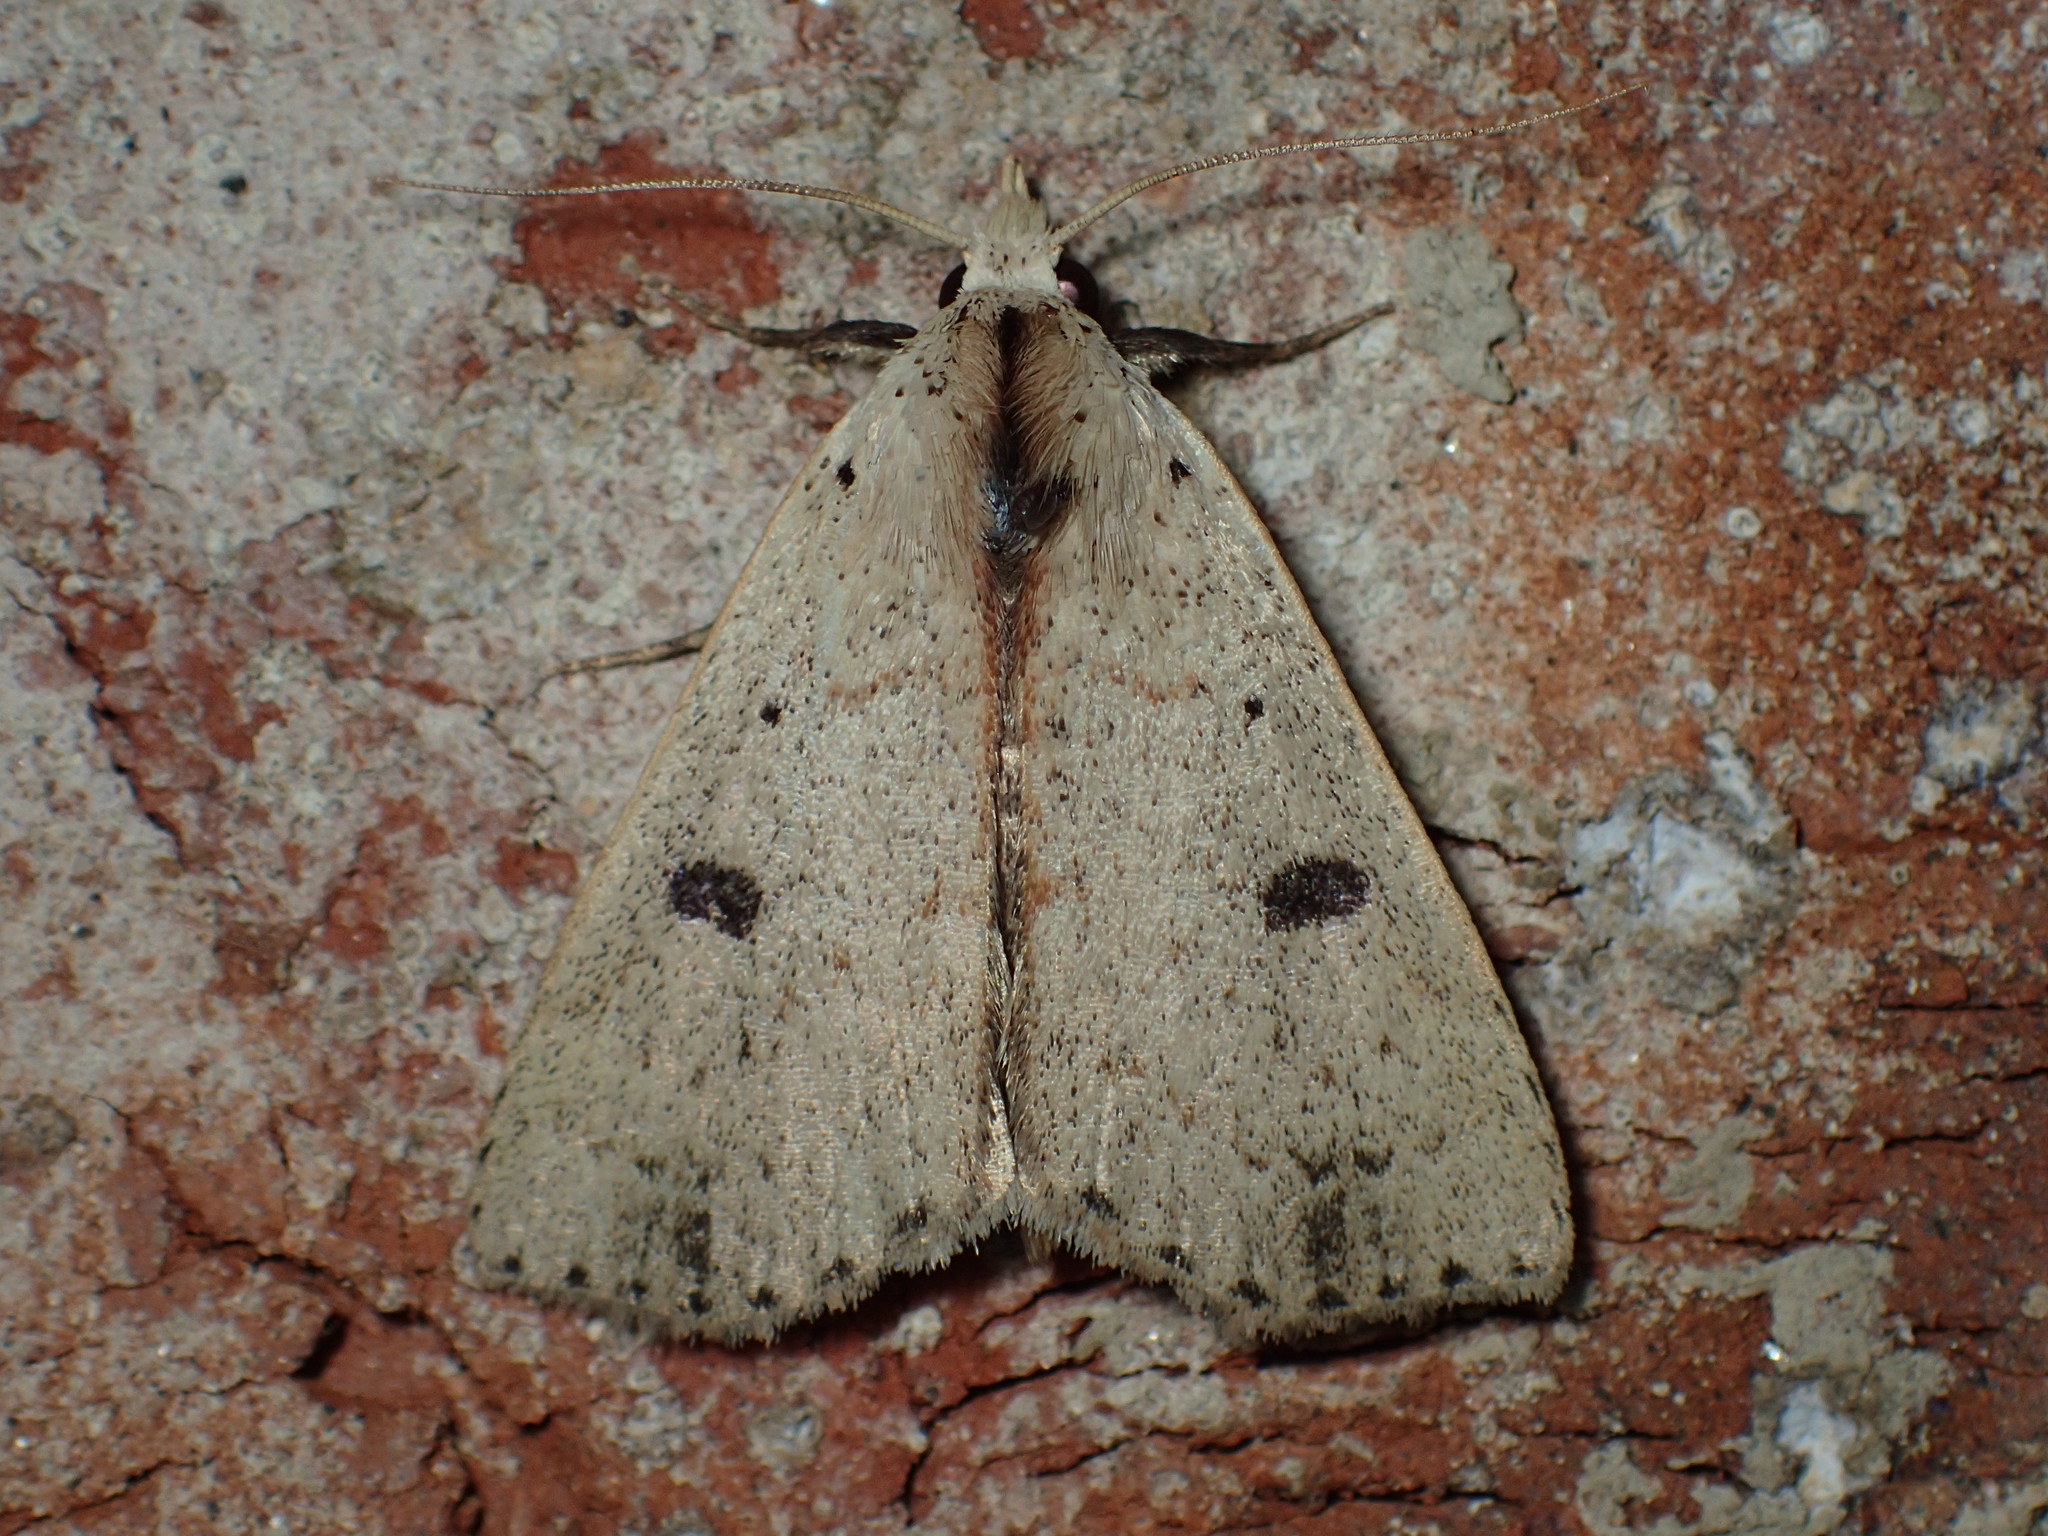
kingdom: Animalia
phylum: Arthropoda
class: Insecta
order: Lepidoptera
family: Erebidae
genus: Scolecocampa
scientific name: Scolecocampa liburna
